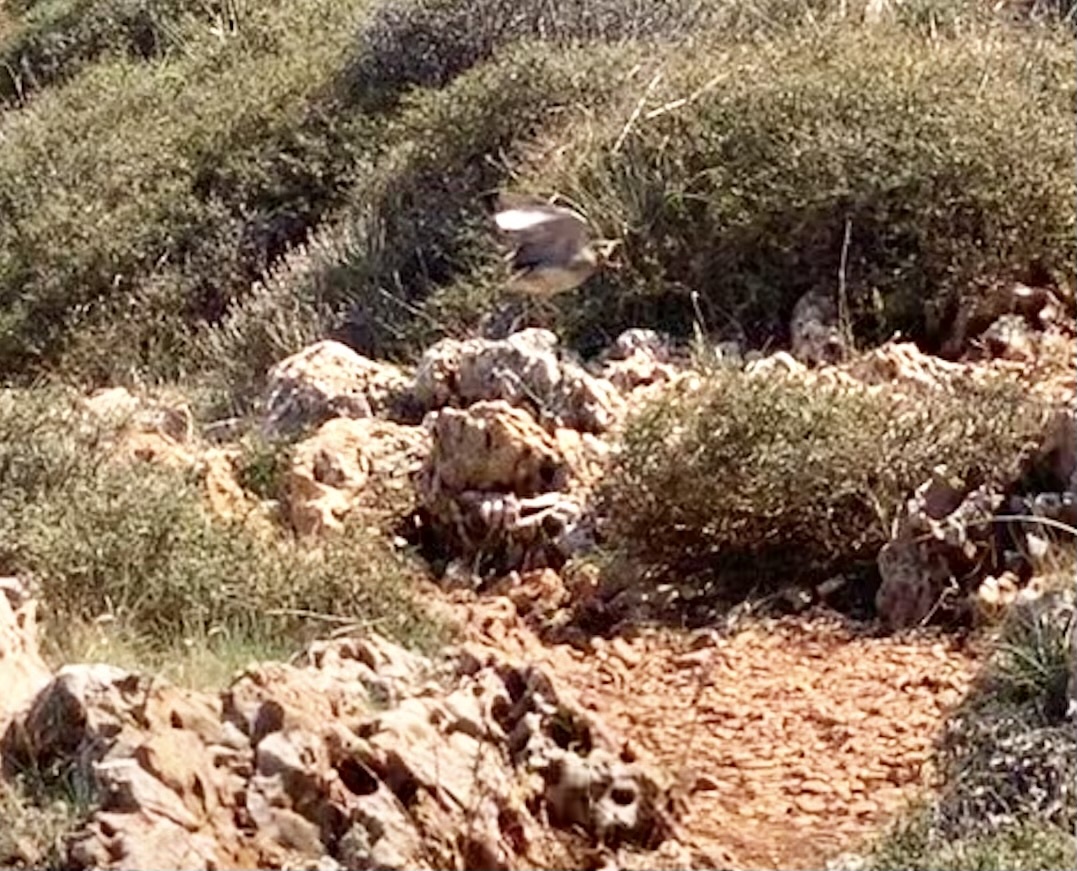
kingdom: Animalia
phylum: Chordata
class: Aves
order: Galliformes
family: Phasianidae
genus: Alectoris
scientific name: Alectoris chukar
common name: Chukar
